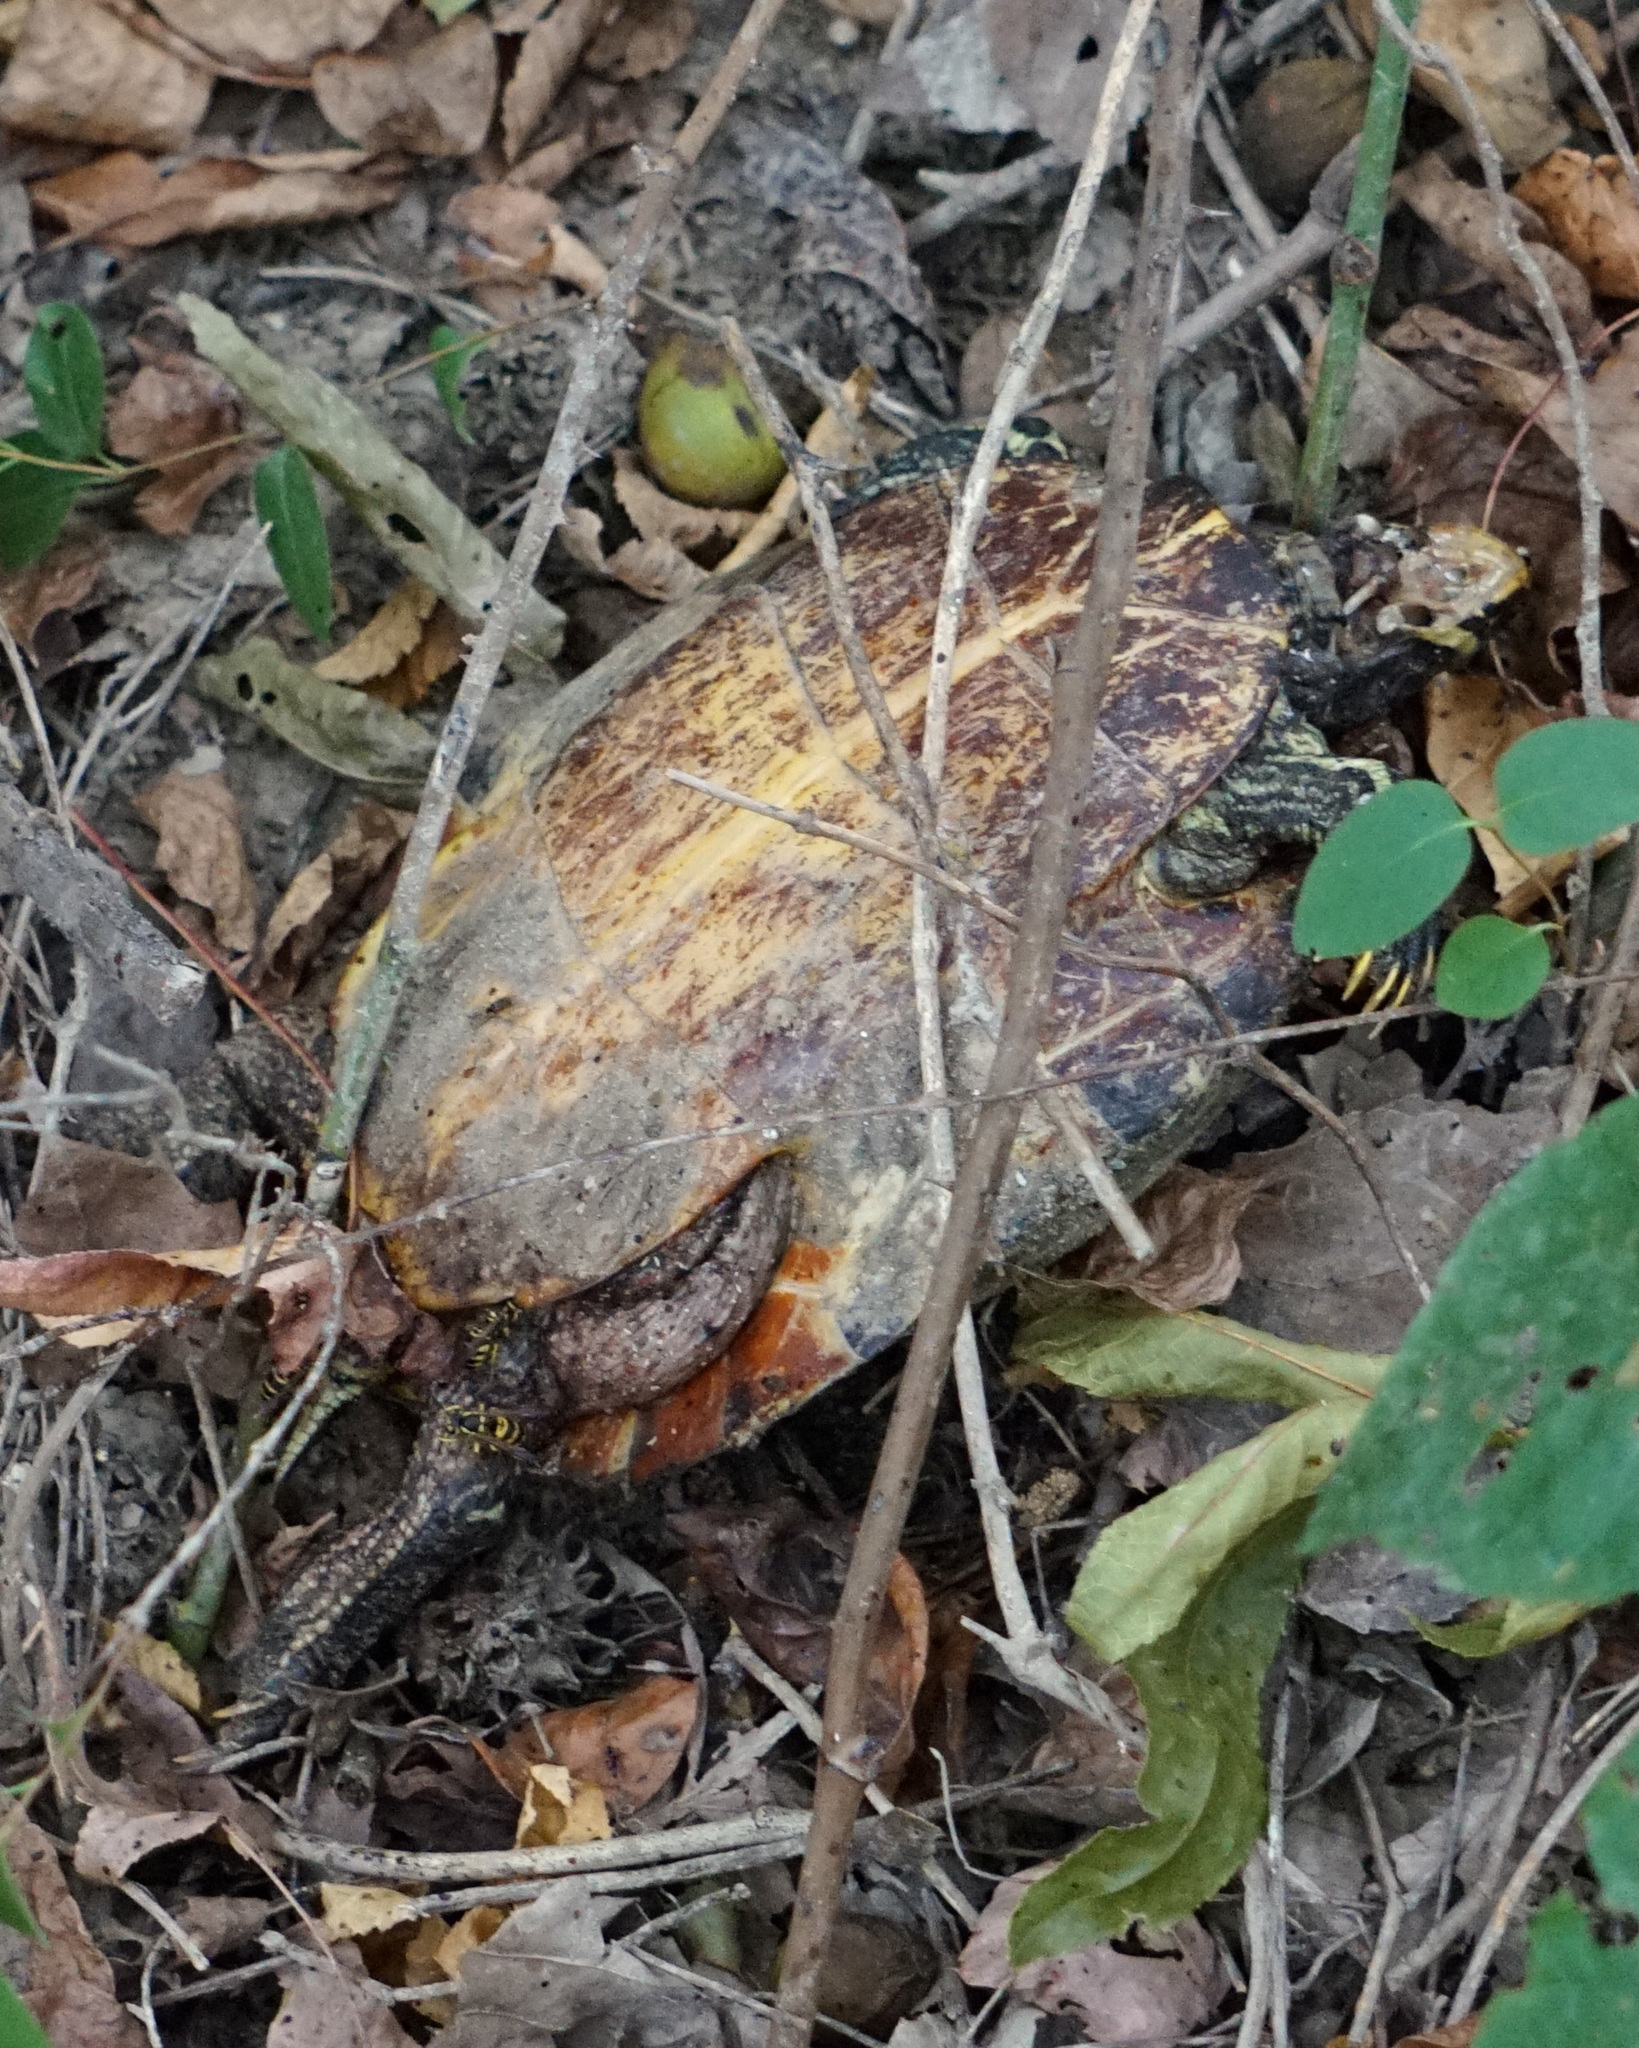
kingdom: Animalia
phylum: Chordata
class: Testudines
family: Emydidae
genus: Trachemys
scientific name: Trachemys scripta
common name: Slider
